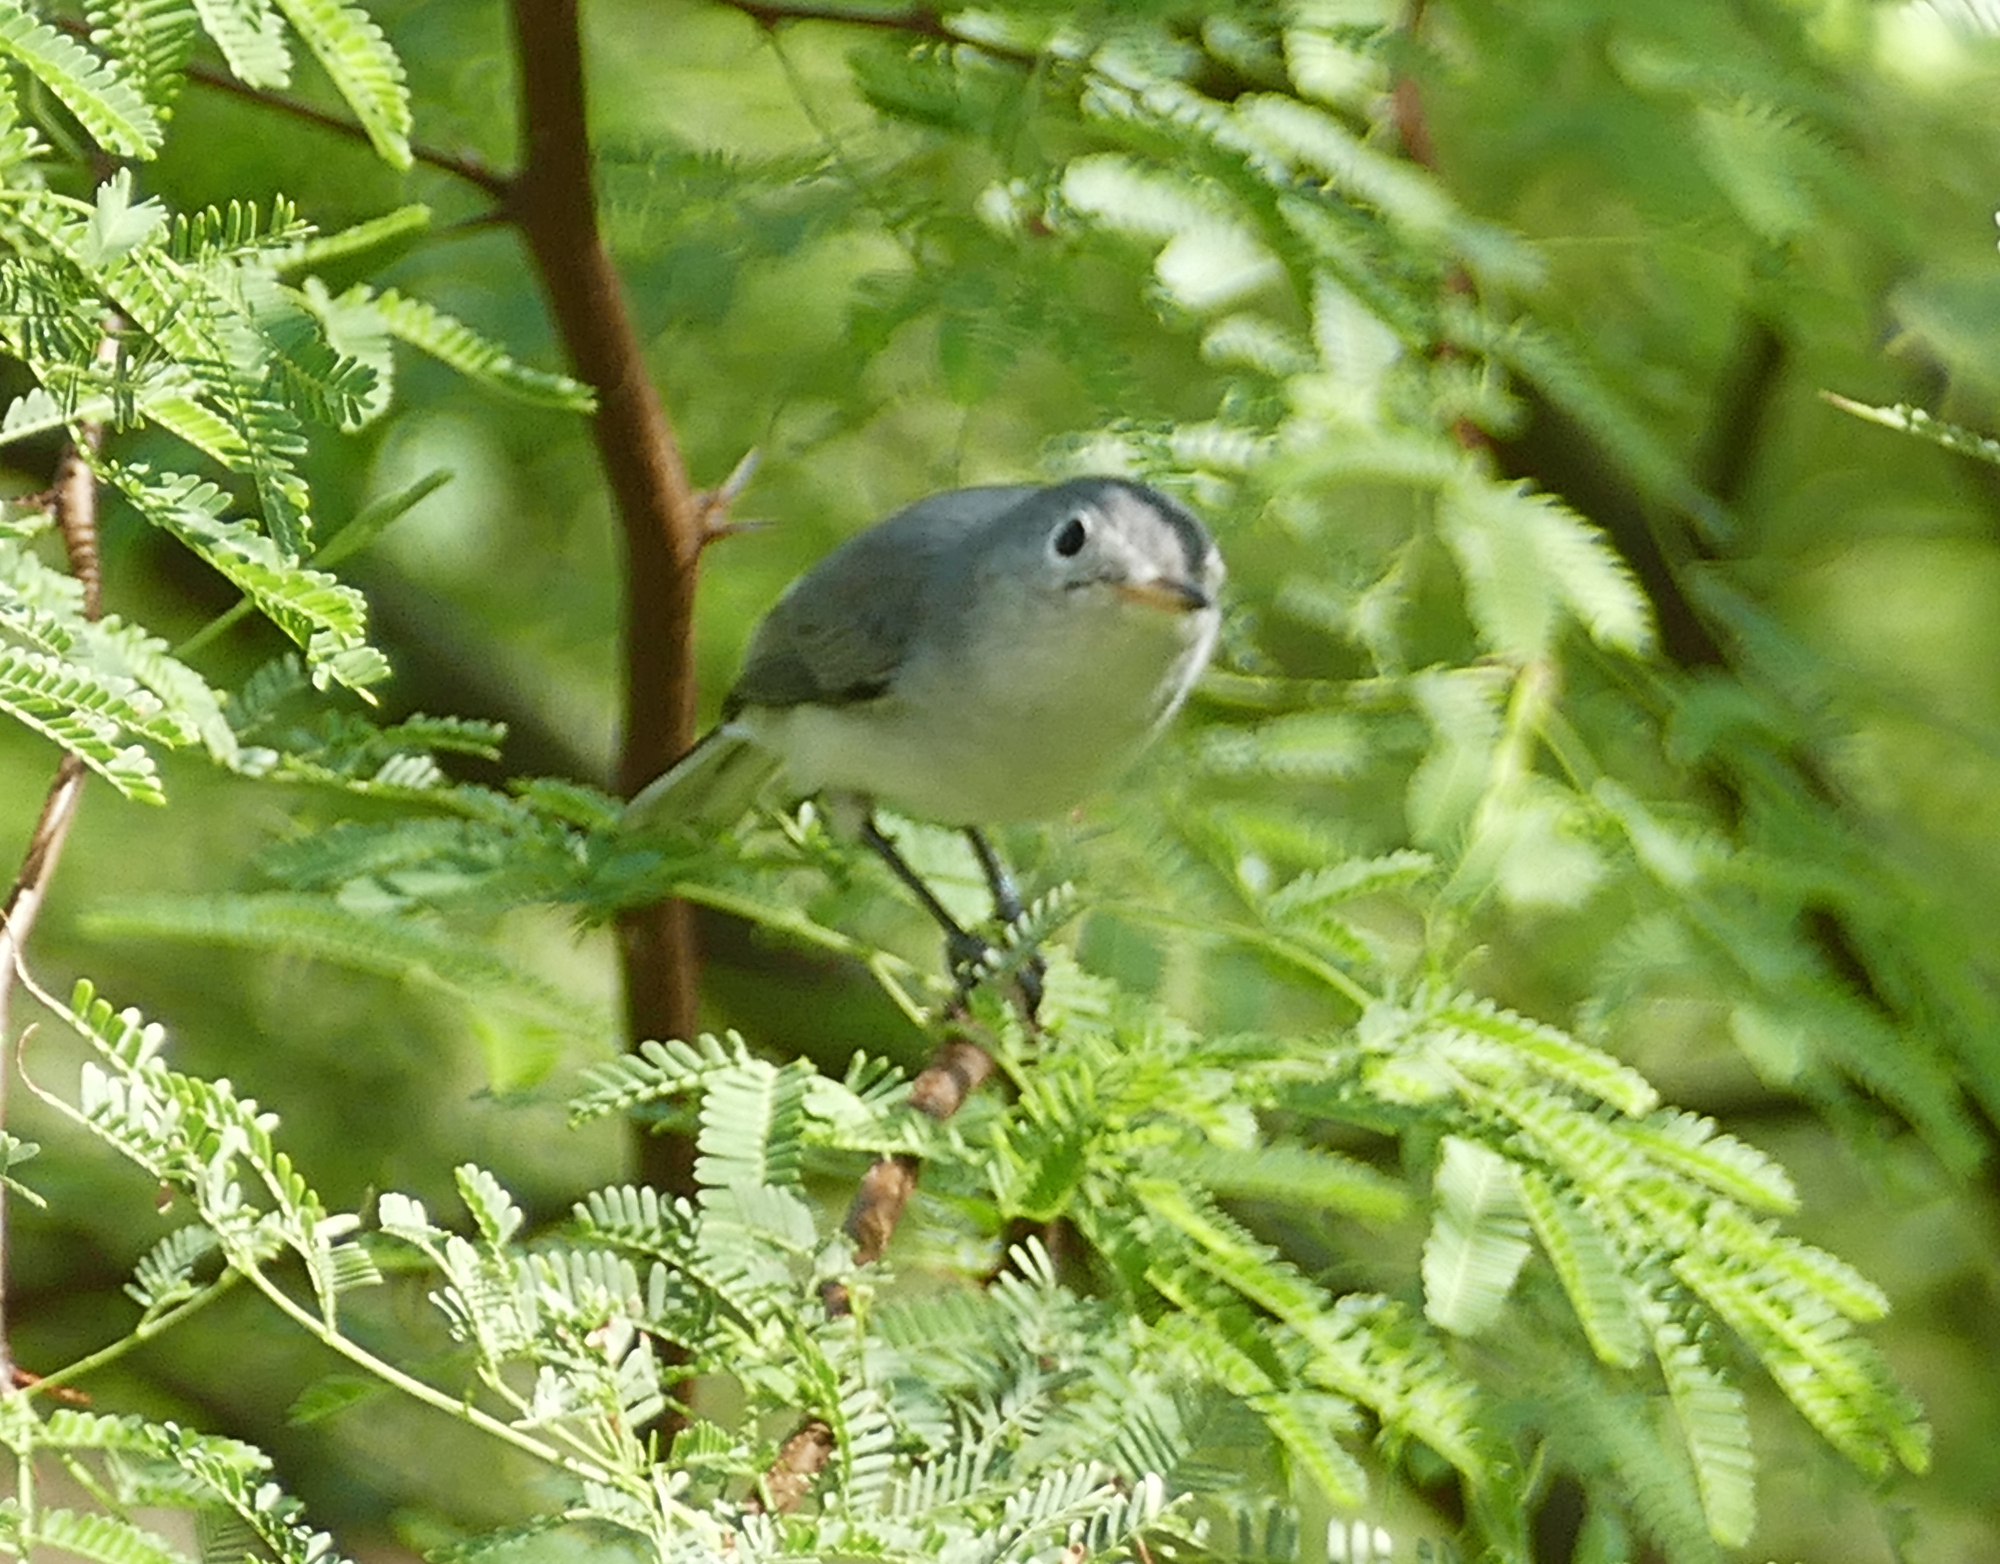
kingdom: Animalia
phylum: Chordata
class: Aves
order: Passeriformes
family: Polioptilidae
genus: Polioptila
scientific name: Polioptila caerulea
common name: Blue-gray gnatcatcher
